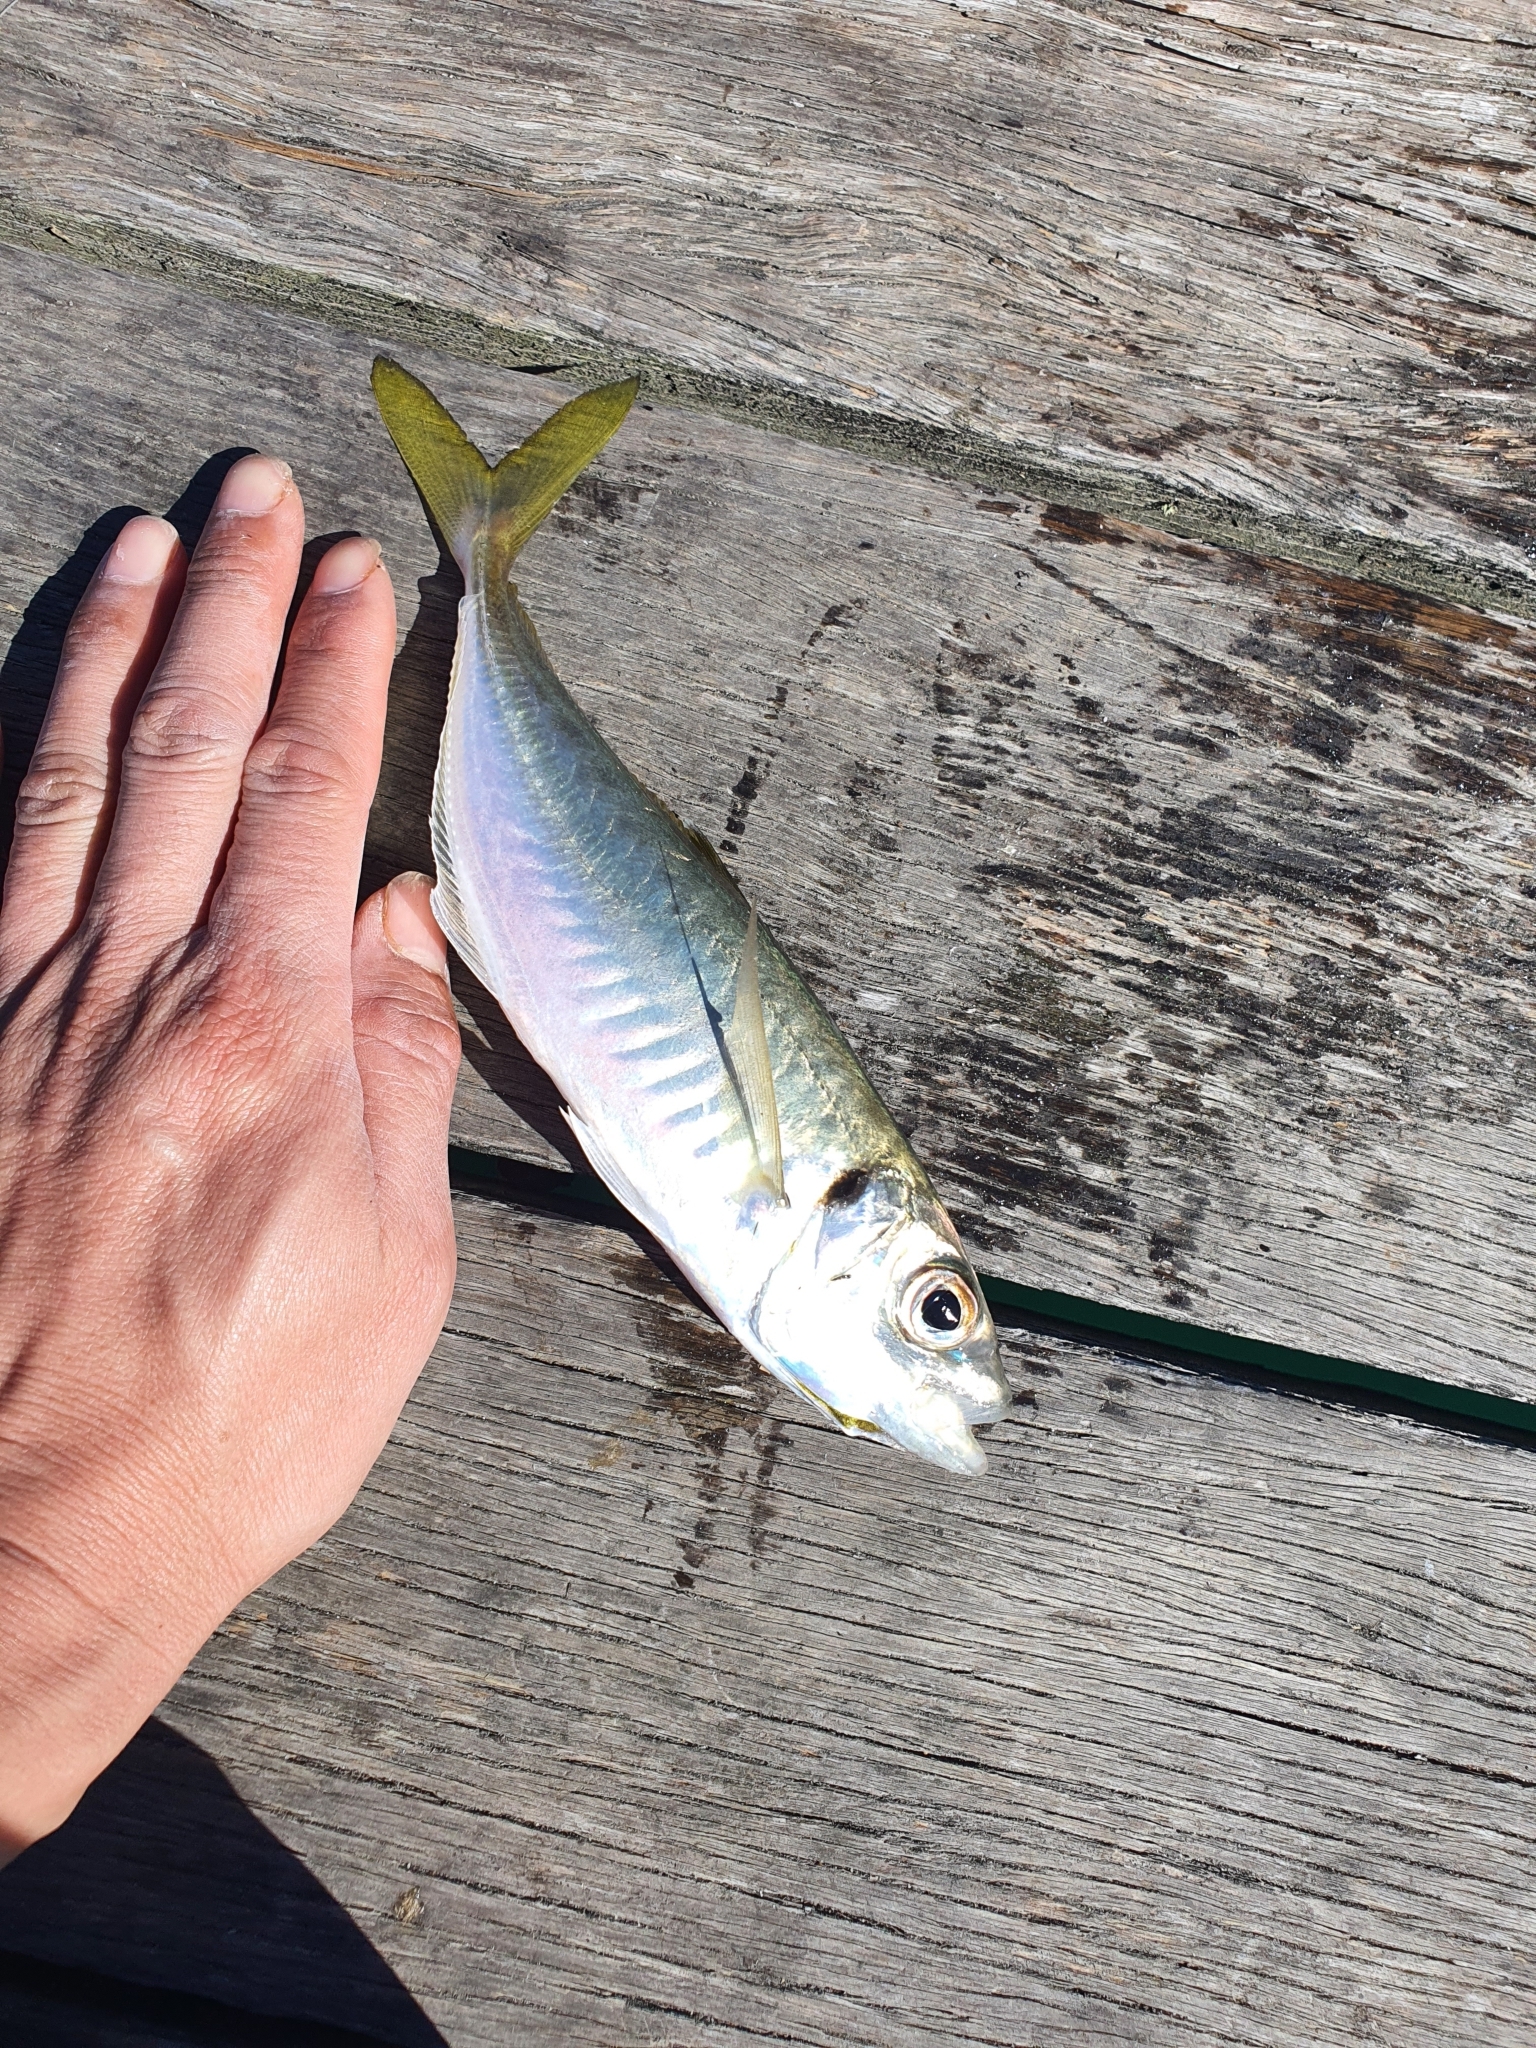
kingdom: Animalia
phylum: Chordata
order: Perciformes
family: Carangidae
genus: Trachurus
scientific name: Trachurus novaezelandiae
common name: Yellowtail horse mackerel
